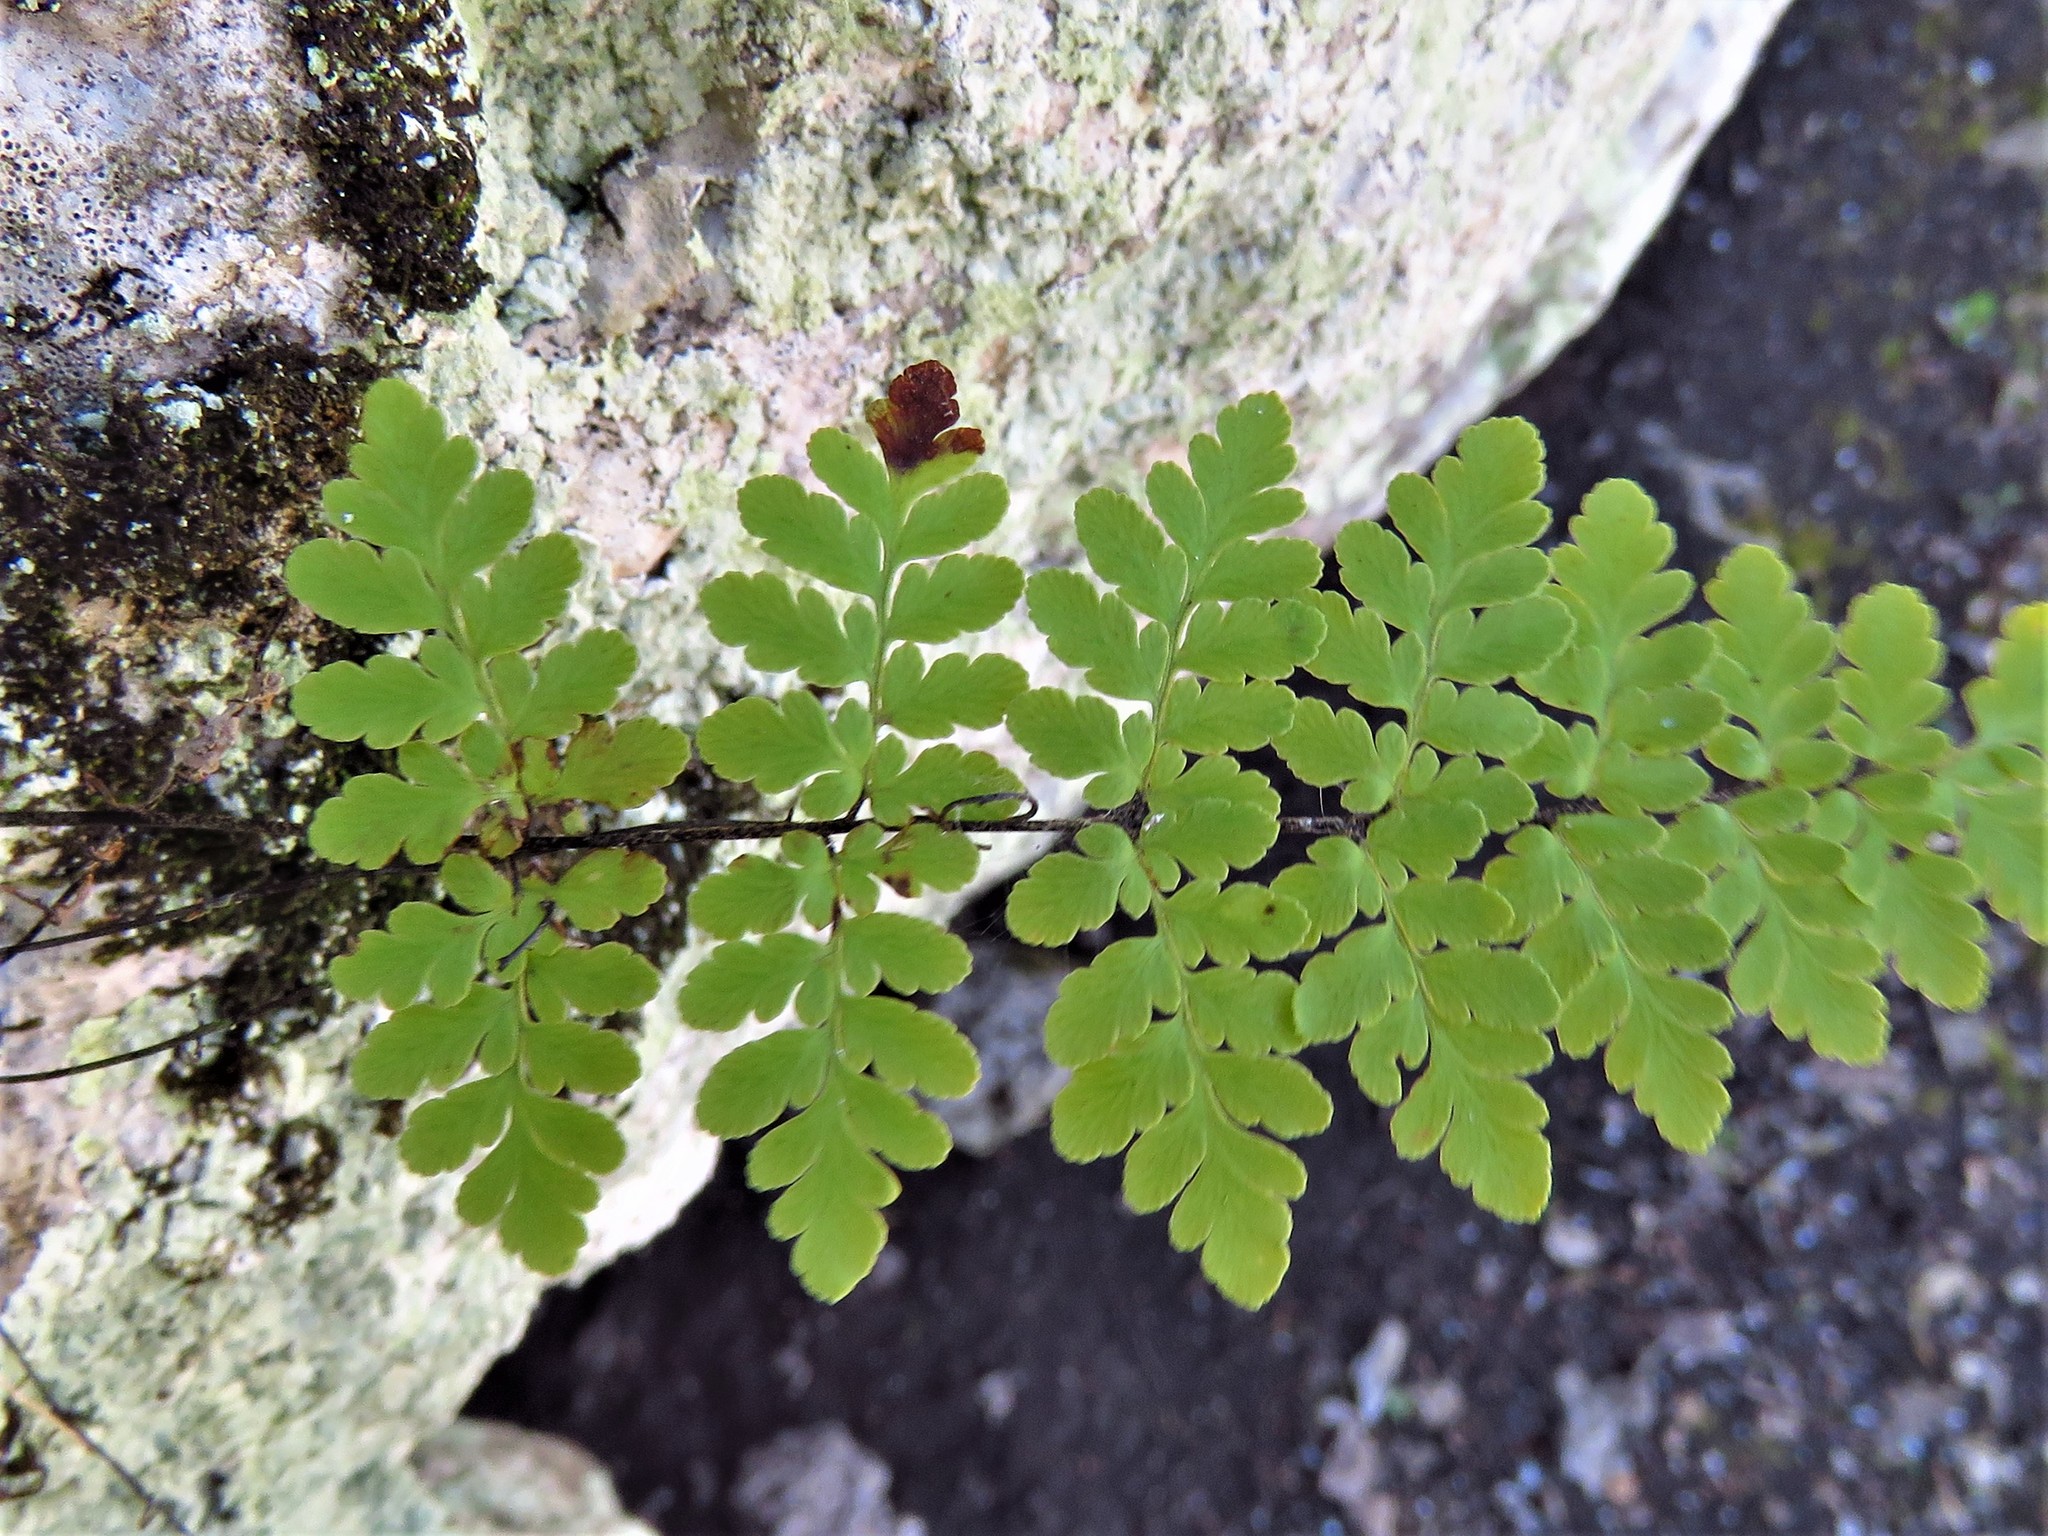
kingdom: Plantae
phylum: Tracheophyta
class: Polypodiopsida
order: Polypodiales
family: Pteridaceae
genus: Myriopteris
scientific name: Myriopteris alabamensis
